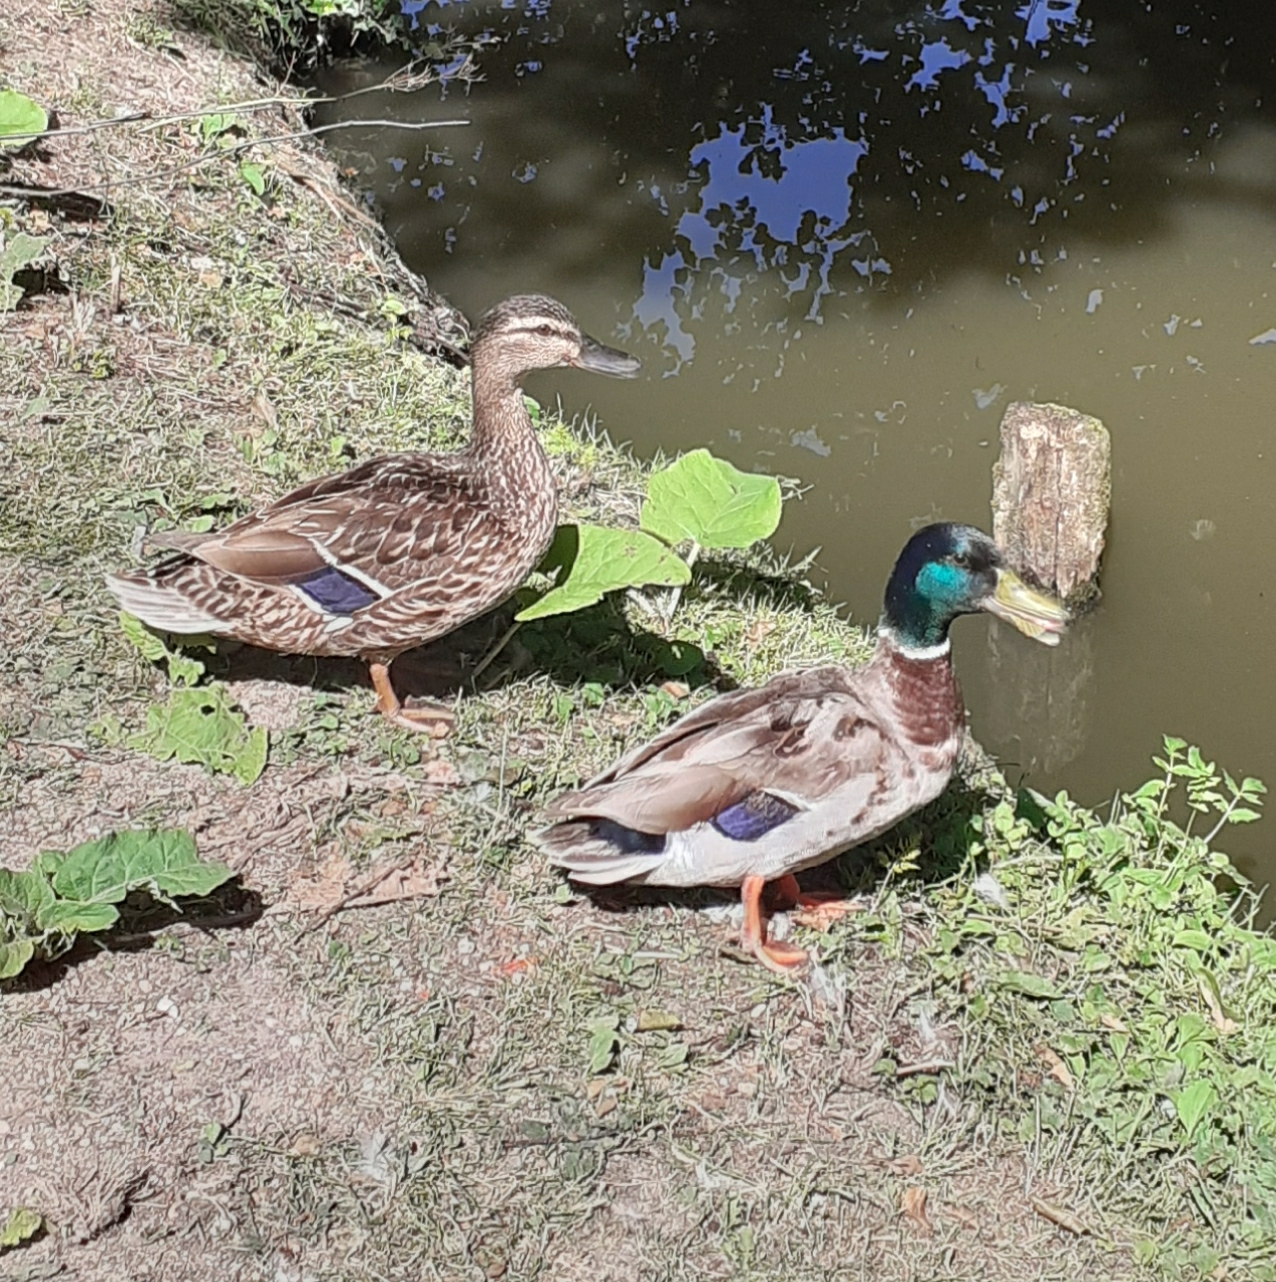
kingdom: Animalia
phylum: Chordata
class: Aves
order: Anseriformes
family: Anatidae
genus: Anas
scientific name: Anas platyrhynchos
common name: Mallard
